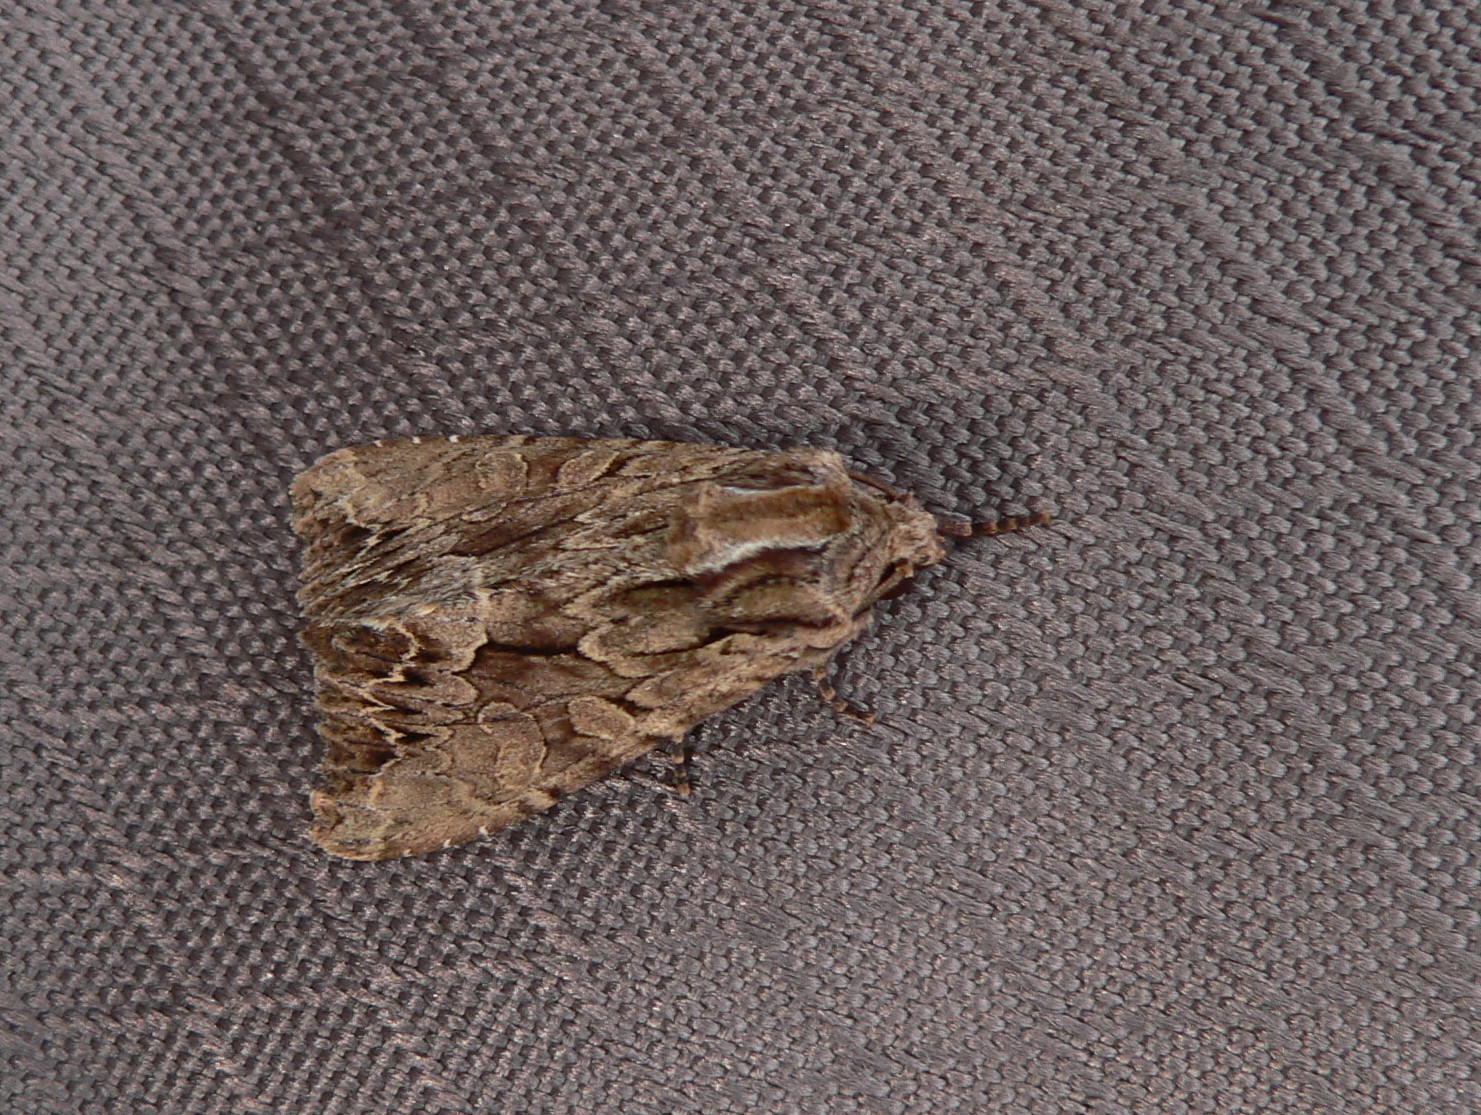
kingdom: Animalia
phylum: Arthropoda
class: Insecta
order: Lepidoptera
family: Noctuidae
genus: Apamea
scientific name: Apamea monoglypha
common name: Dark arches
